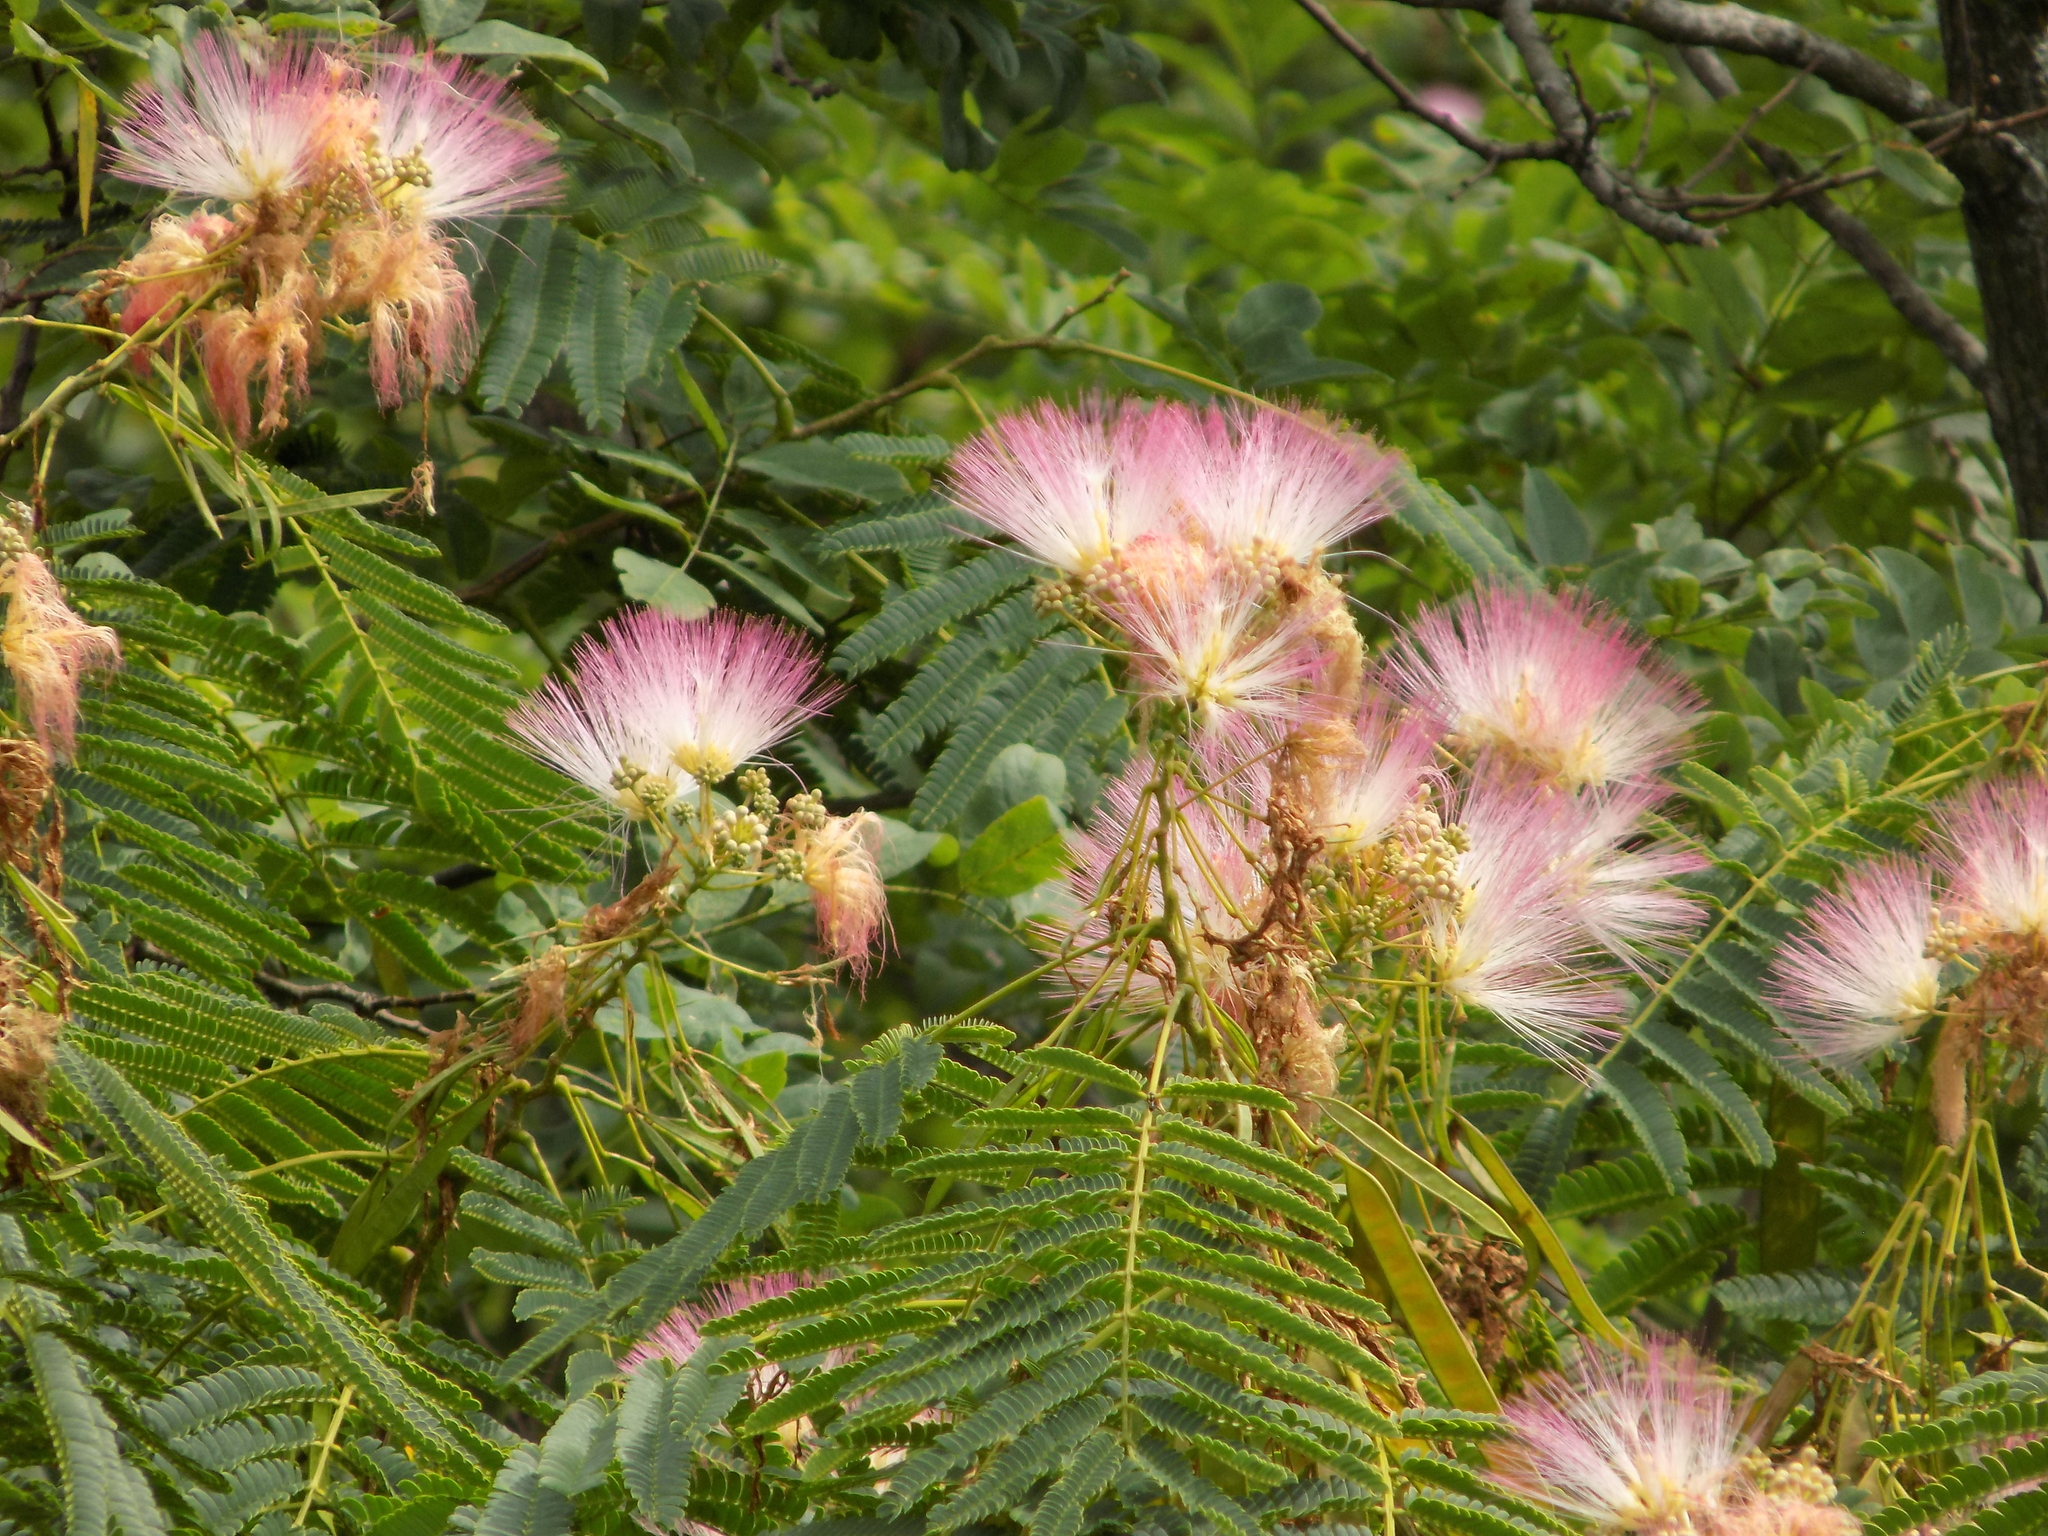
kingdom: Plantae
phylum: Tracheophyta
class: Magnoliopsida
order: Fabales
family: Fabaceae
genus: Albizia
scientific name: Albizia julibrissin
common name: Silktree
